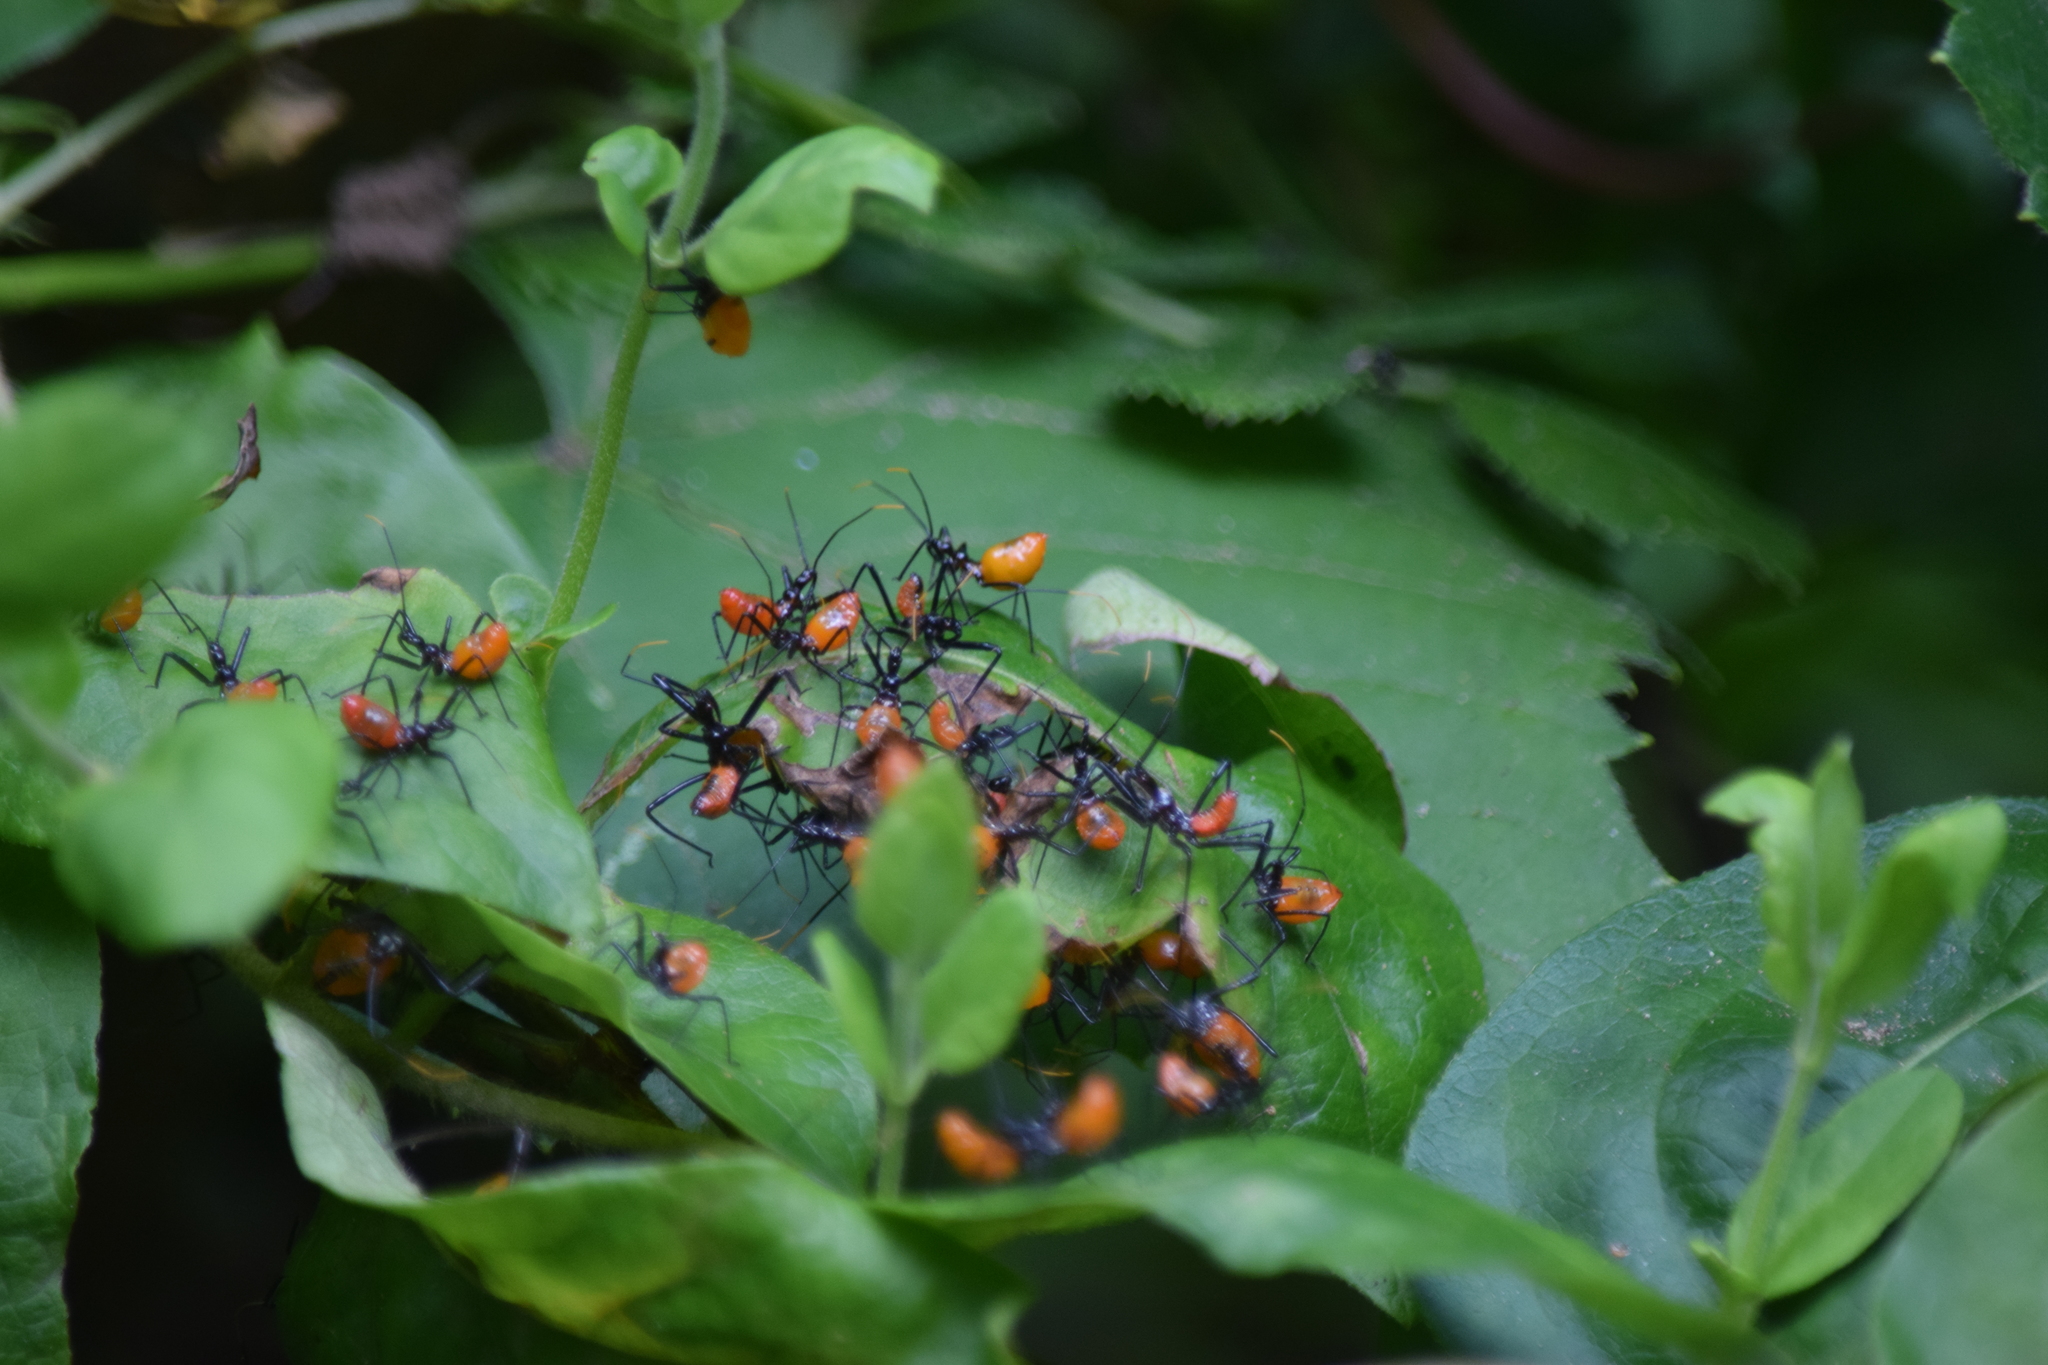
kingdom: Animalia
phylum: Arthropoda
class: Insecta
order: Hemiptera
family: Reduviidae
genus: Arilus
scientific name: Arilus cristatus
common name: North american wheel bug
